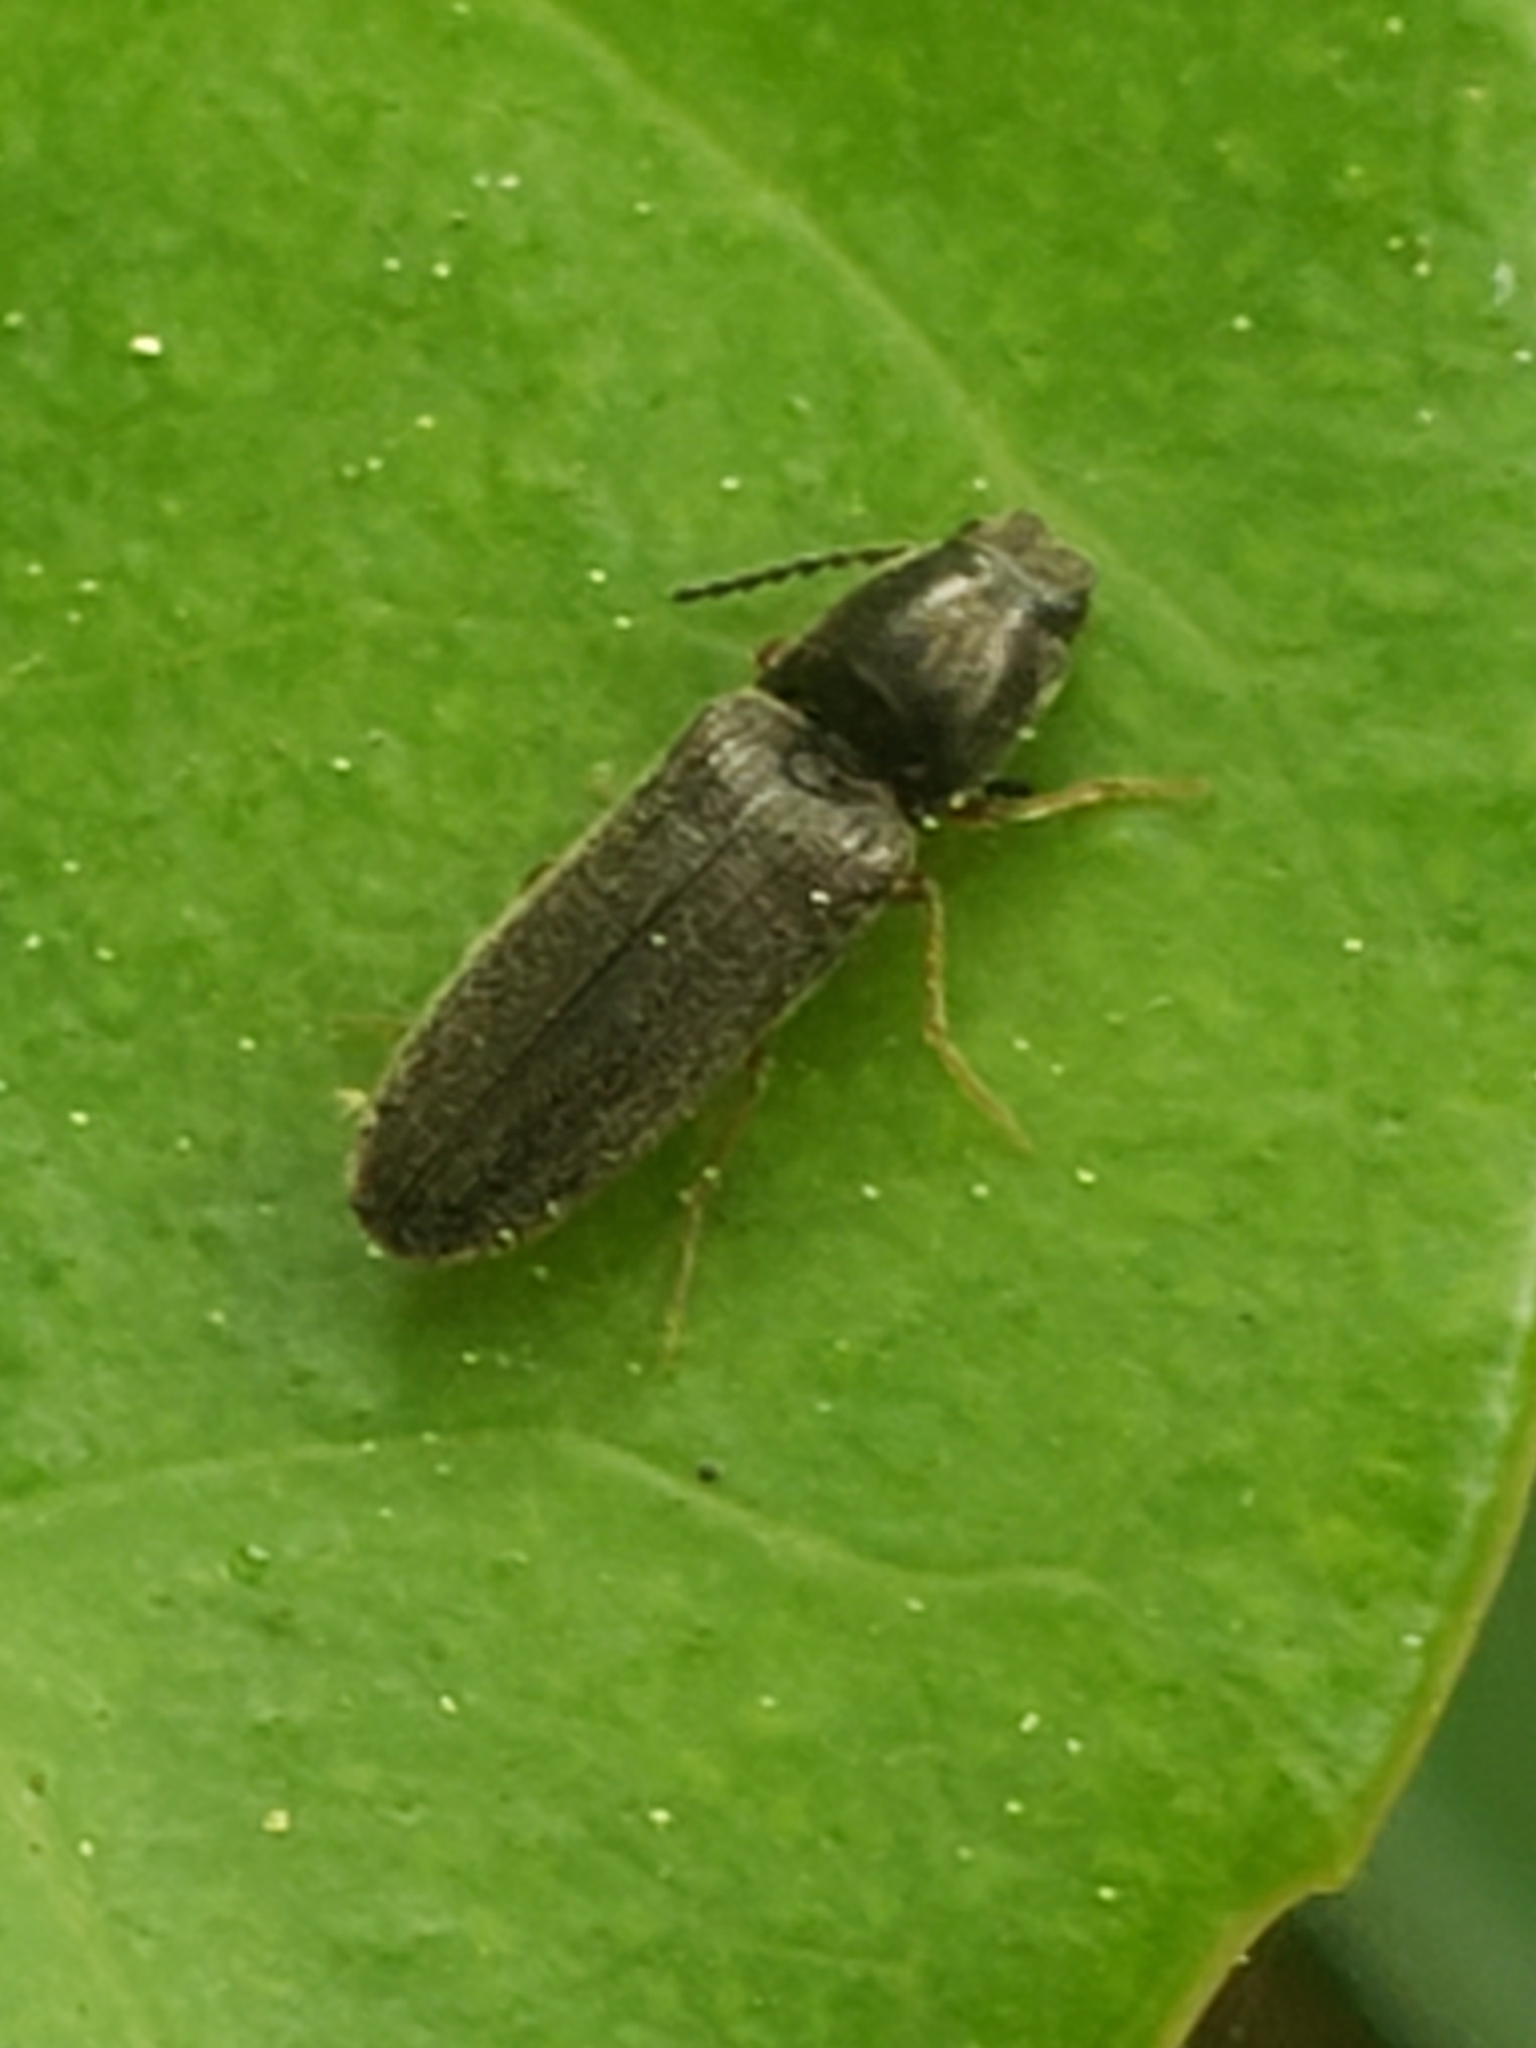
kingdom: Animalia
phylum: Arthropoda
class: Insecta
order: Coleoptera
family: Elateridae
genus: Limonius
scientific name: Limonius quercinus
